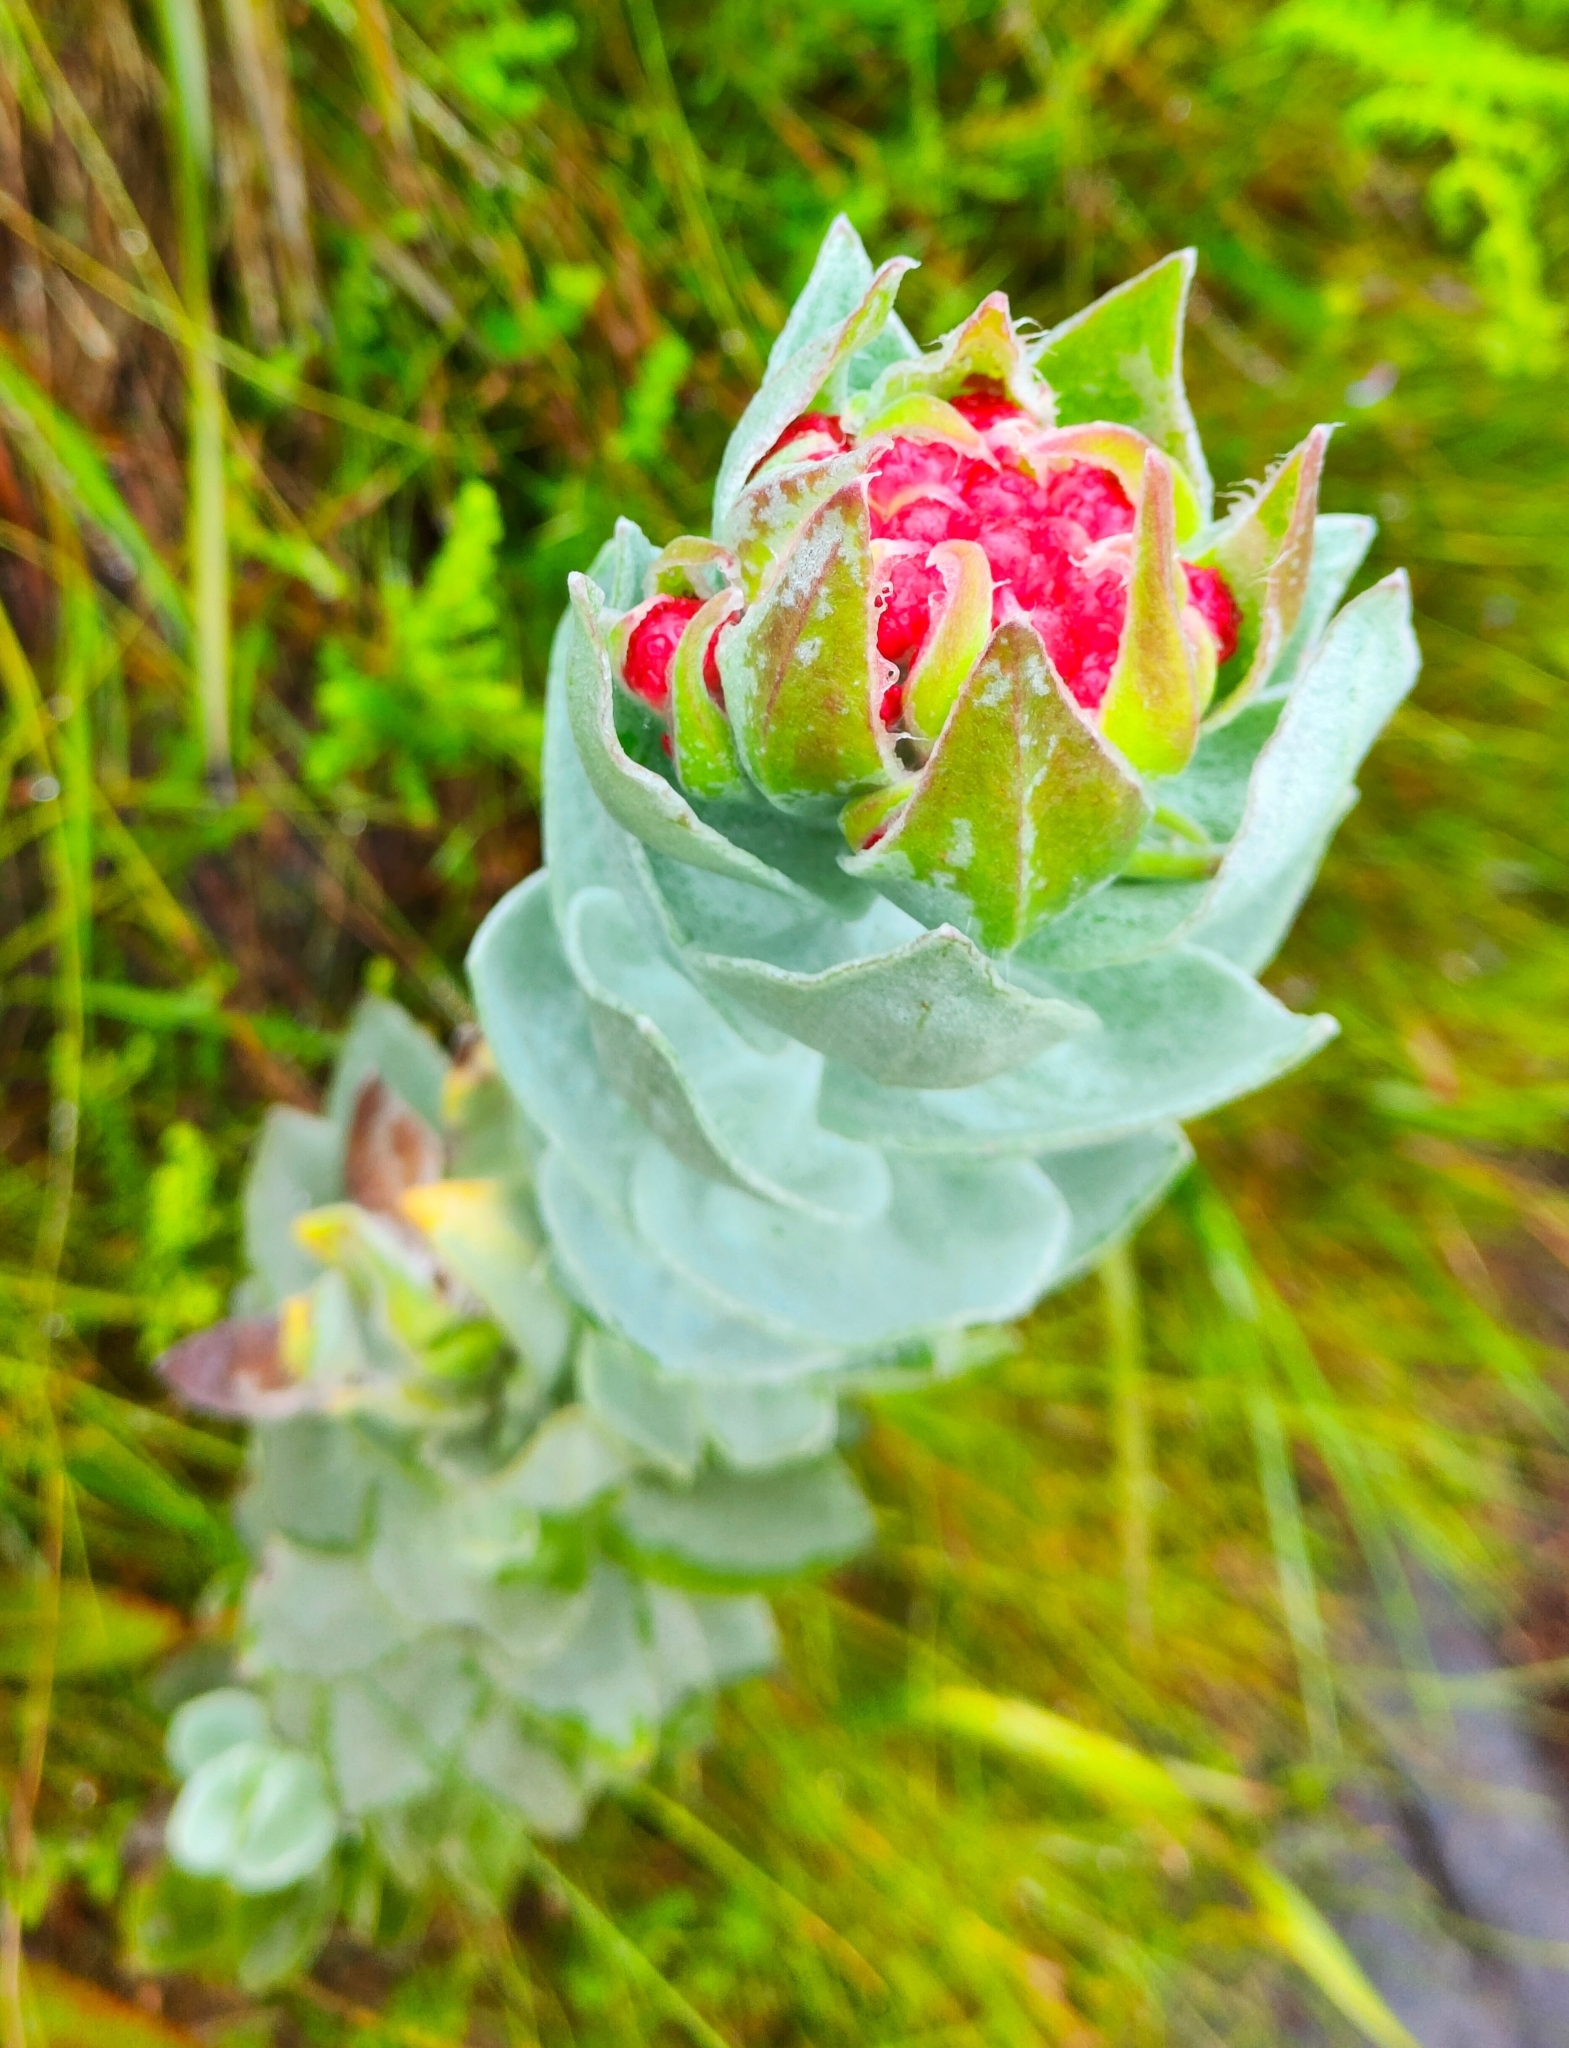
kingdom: Plantae
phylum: Tracheophyta
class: Magnoliopsida
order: Asterales
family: Asteraceae
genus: Syncarpha
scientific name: Syncarpha eximia
